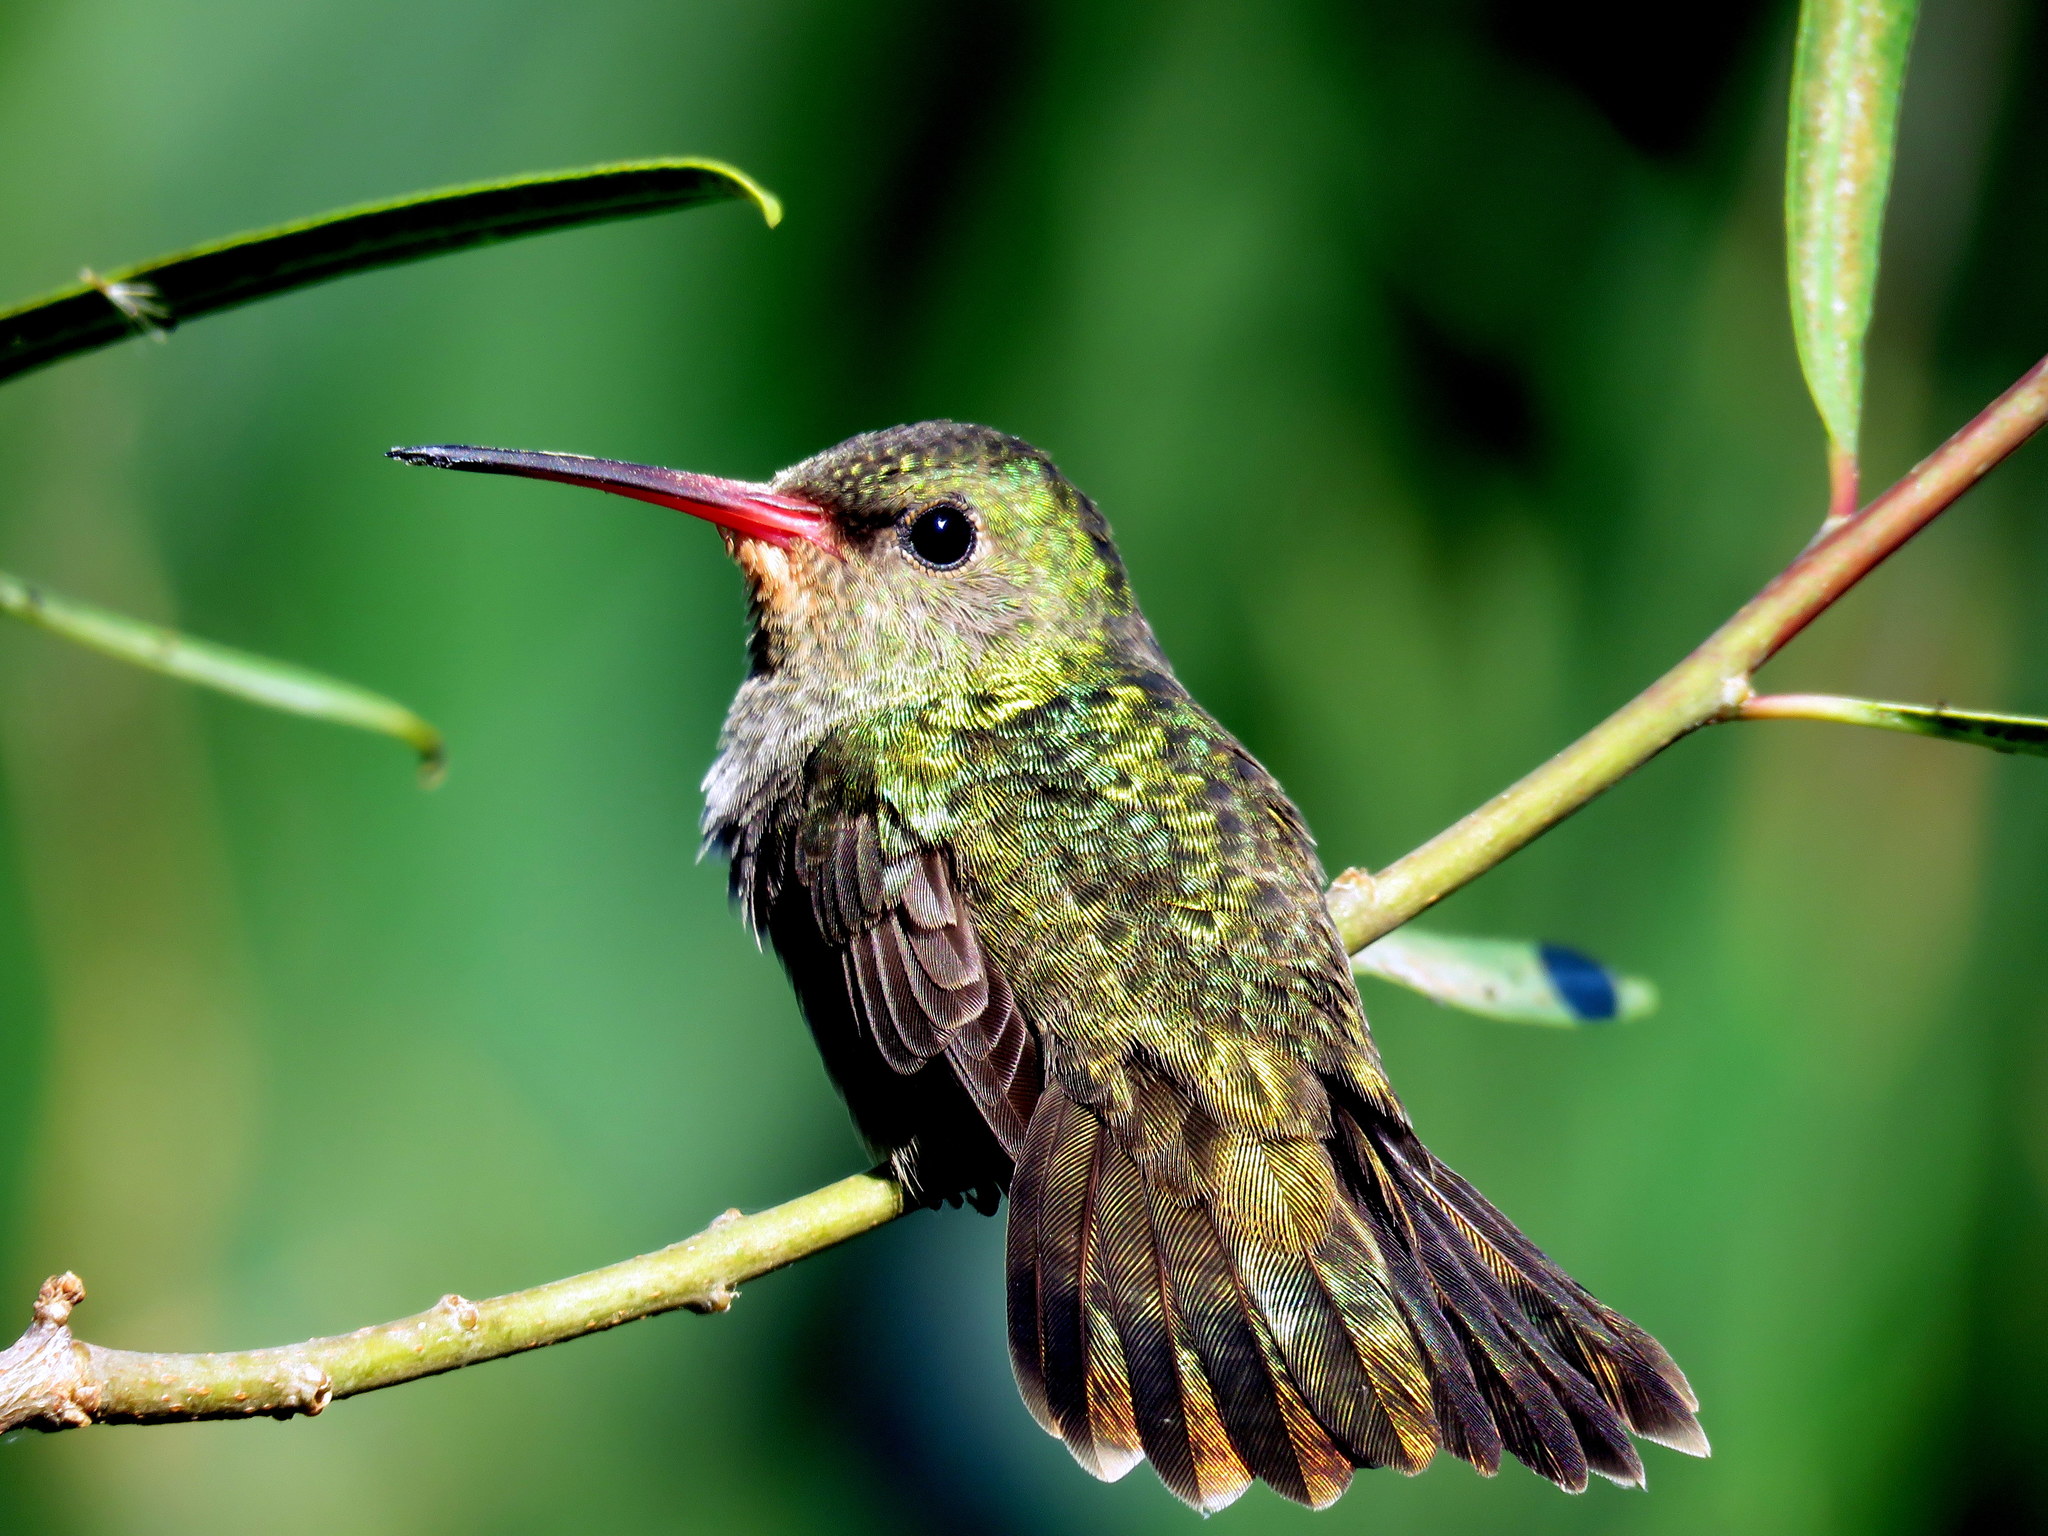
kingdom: Animalia
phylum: Chordata
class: Aves
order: Apodiformes
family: Trochilidae
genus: Hylocharis
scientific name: Hylocharis chrysura
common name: Gilded sapphire
